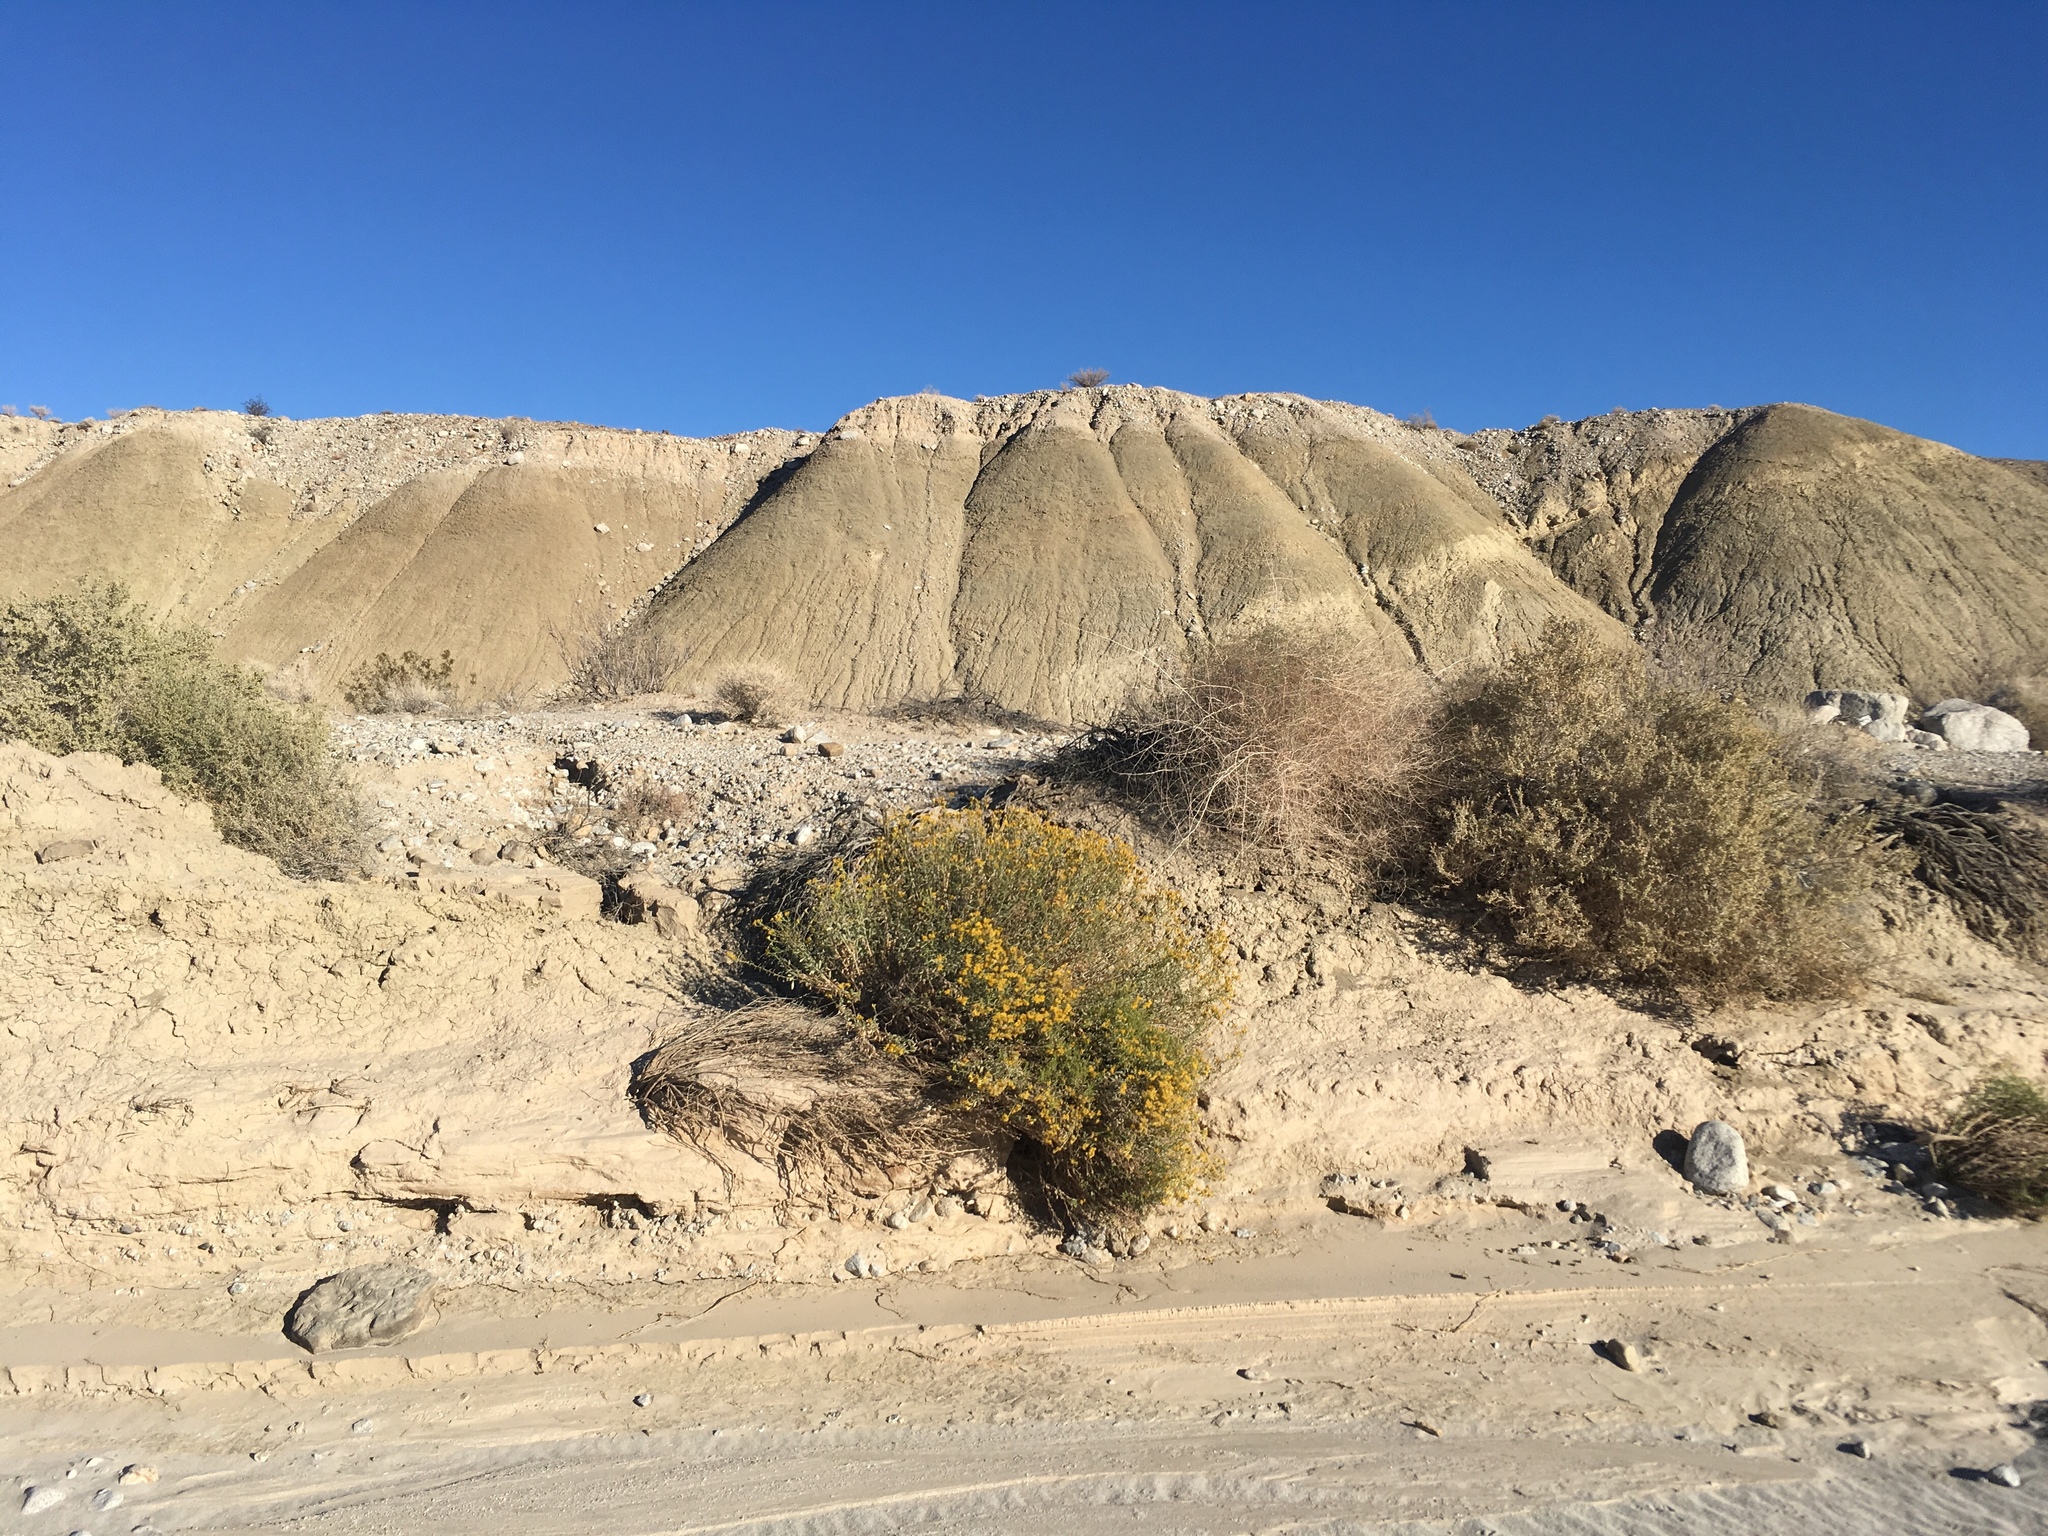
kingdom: Plantae
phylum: Tracheophyta
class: Magnoliopsida
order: Asterales
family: Asteraceae
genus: Isocoma
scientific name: Isocoma acradenia
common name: Alkali jimmyweed
